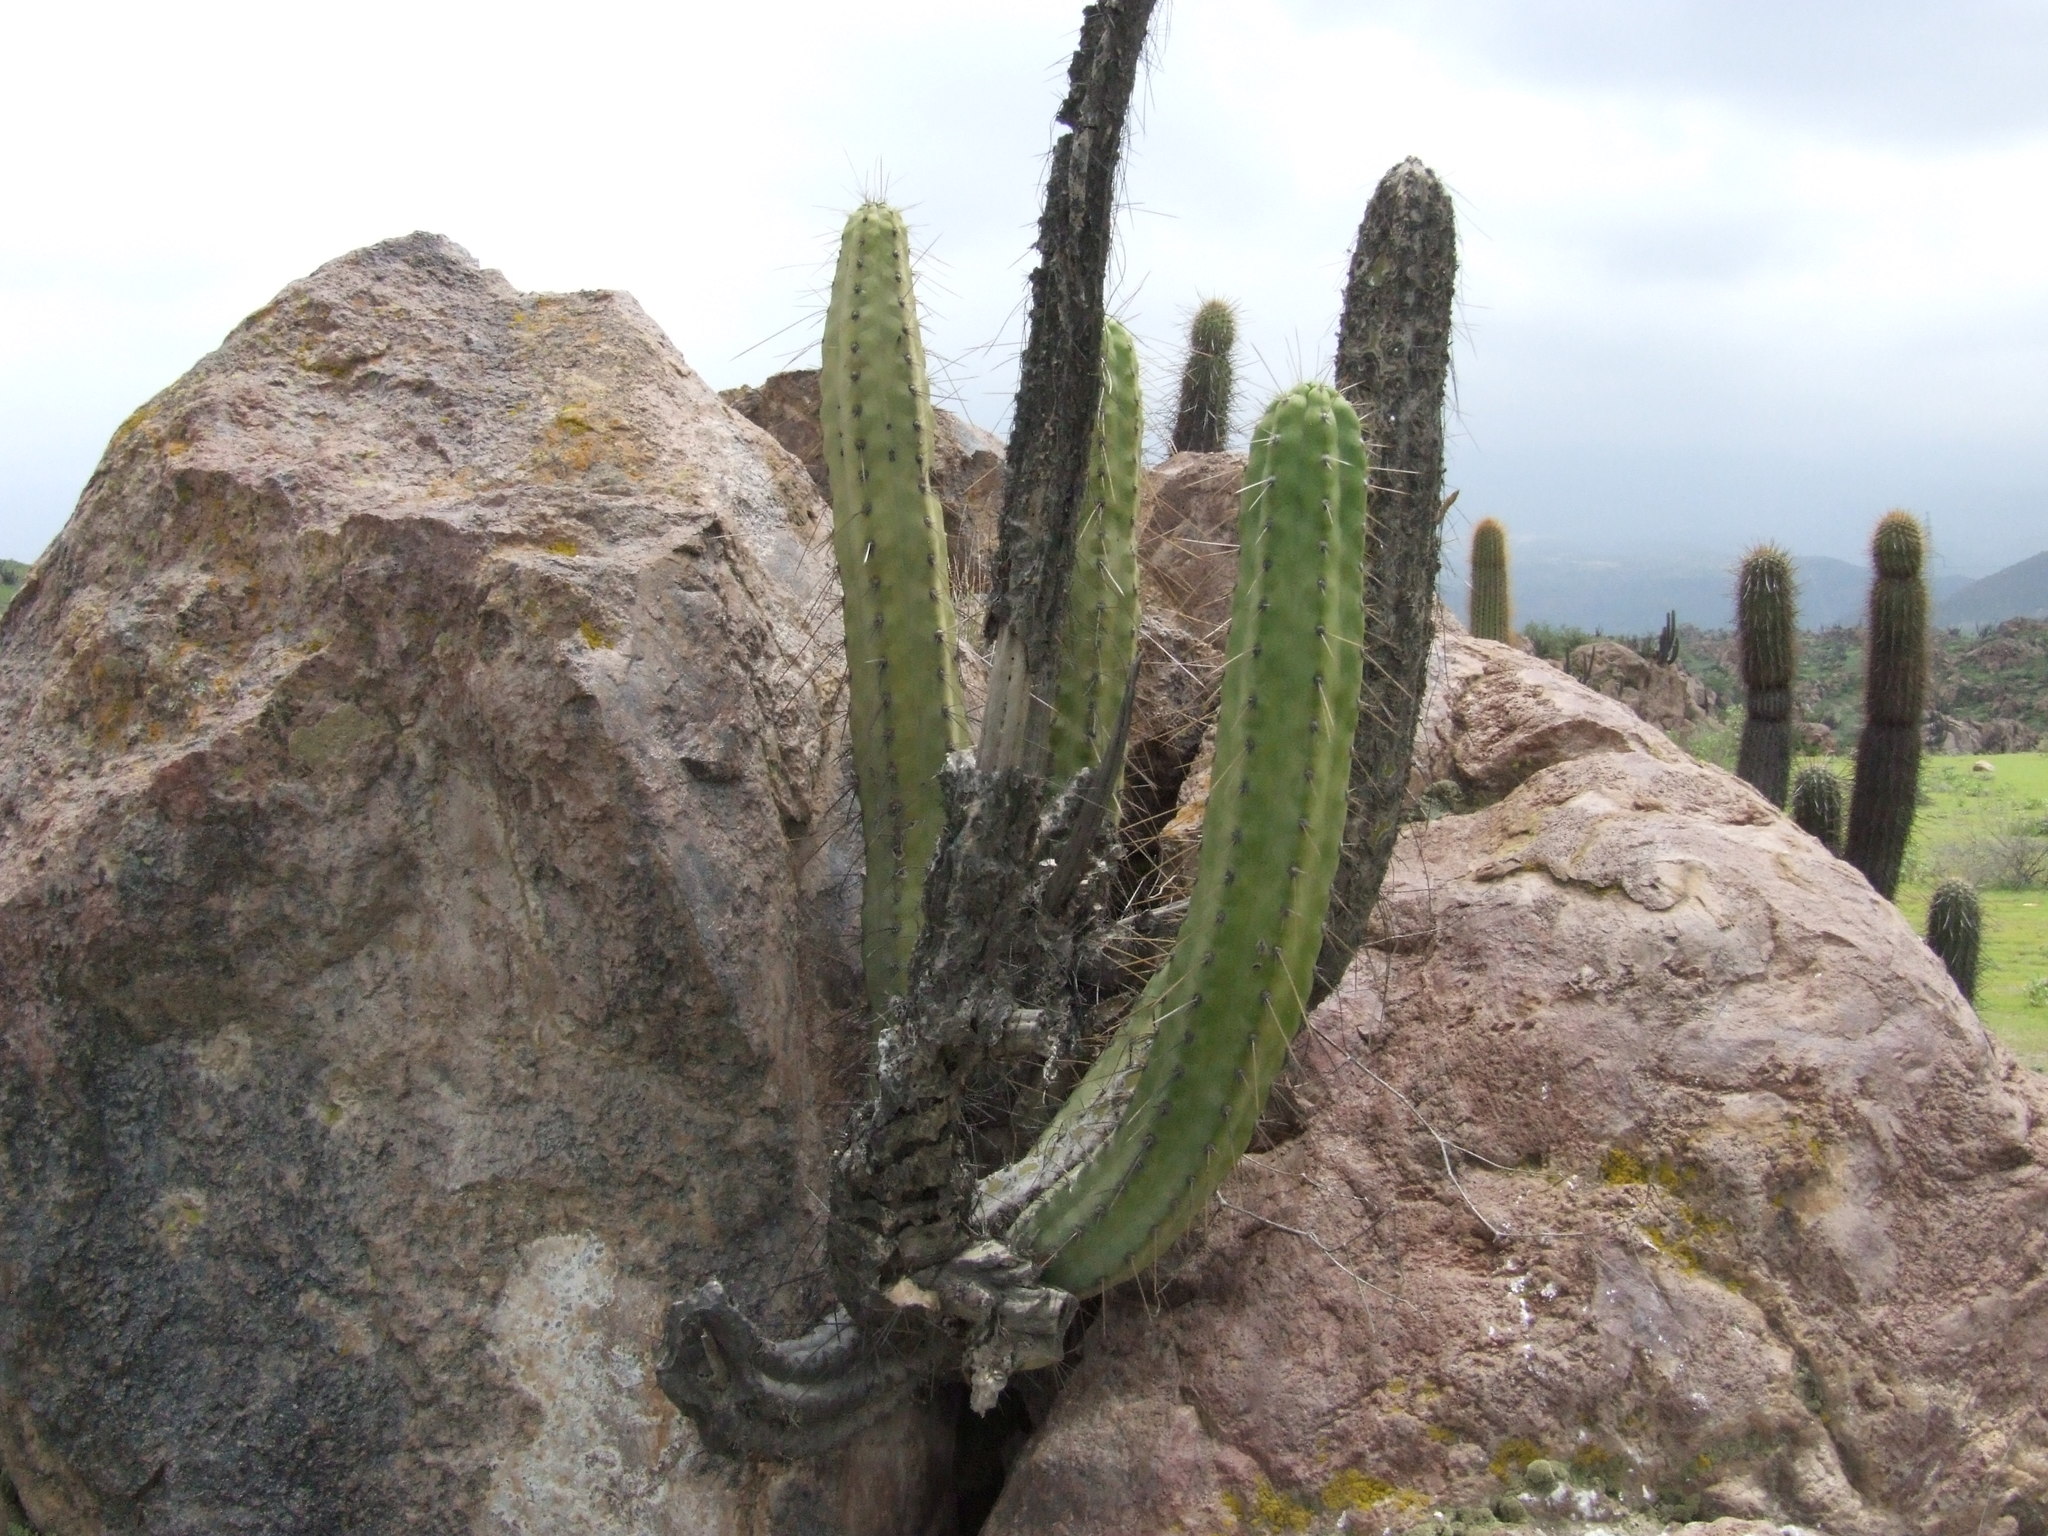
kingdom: Plantae
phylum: Tracheophyta
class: Magnoliopsida
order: Caryophyllales
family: Cactaceae
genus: Corryocactus
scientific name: Corryocactus brevistylus
